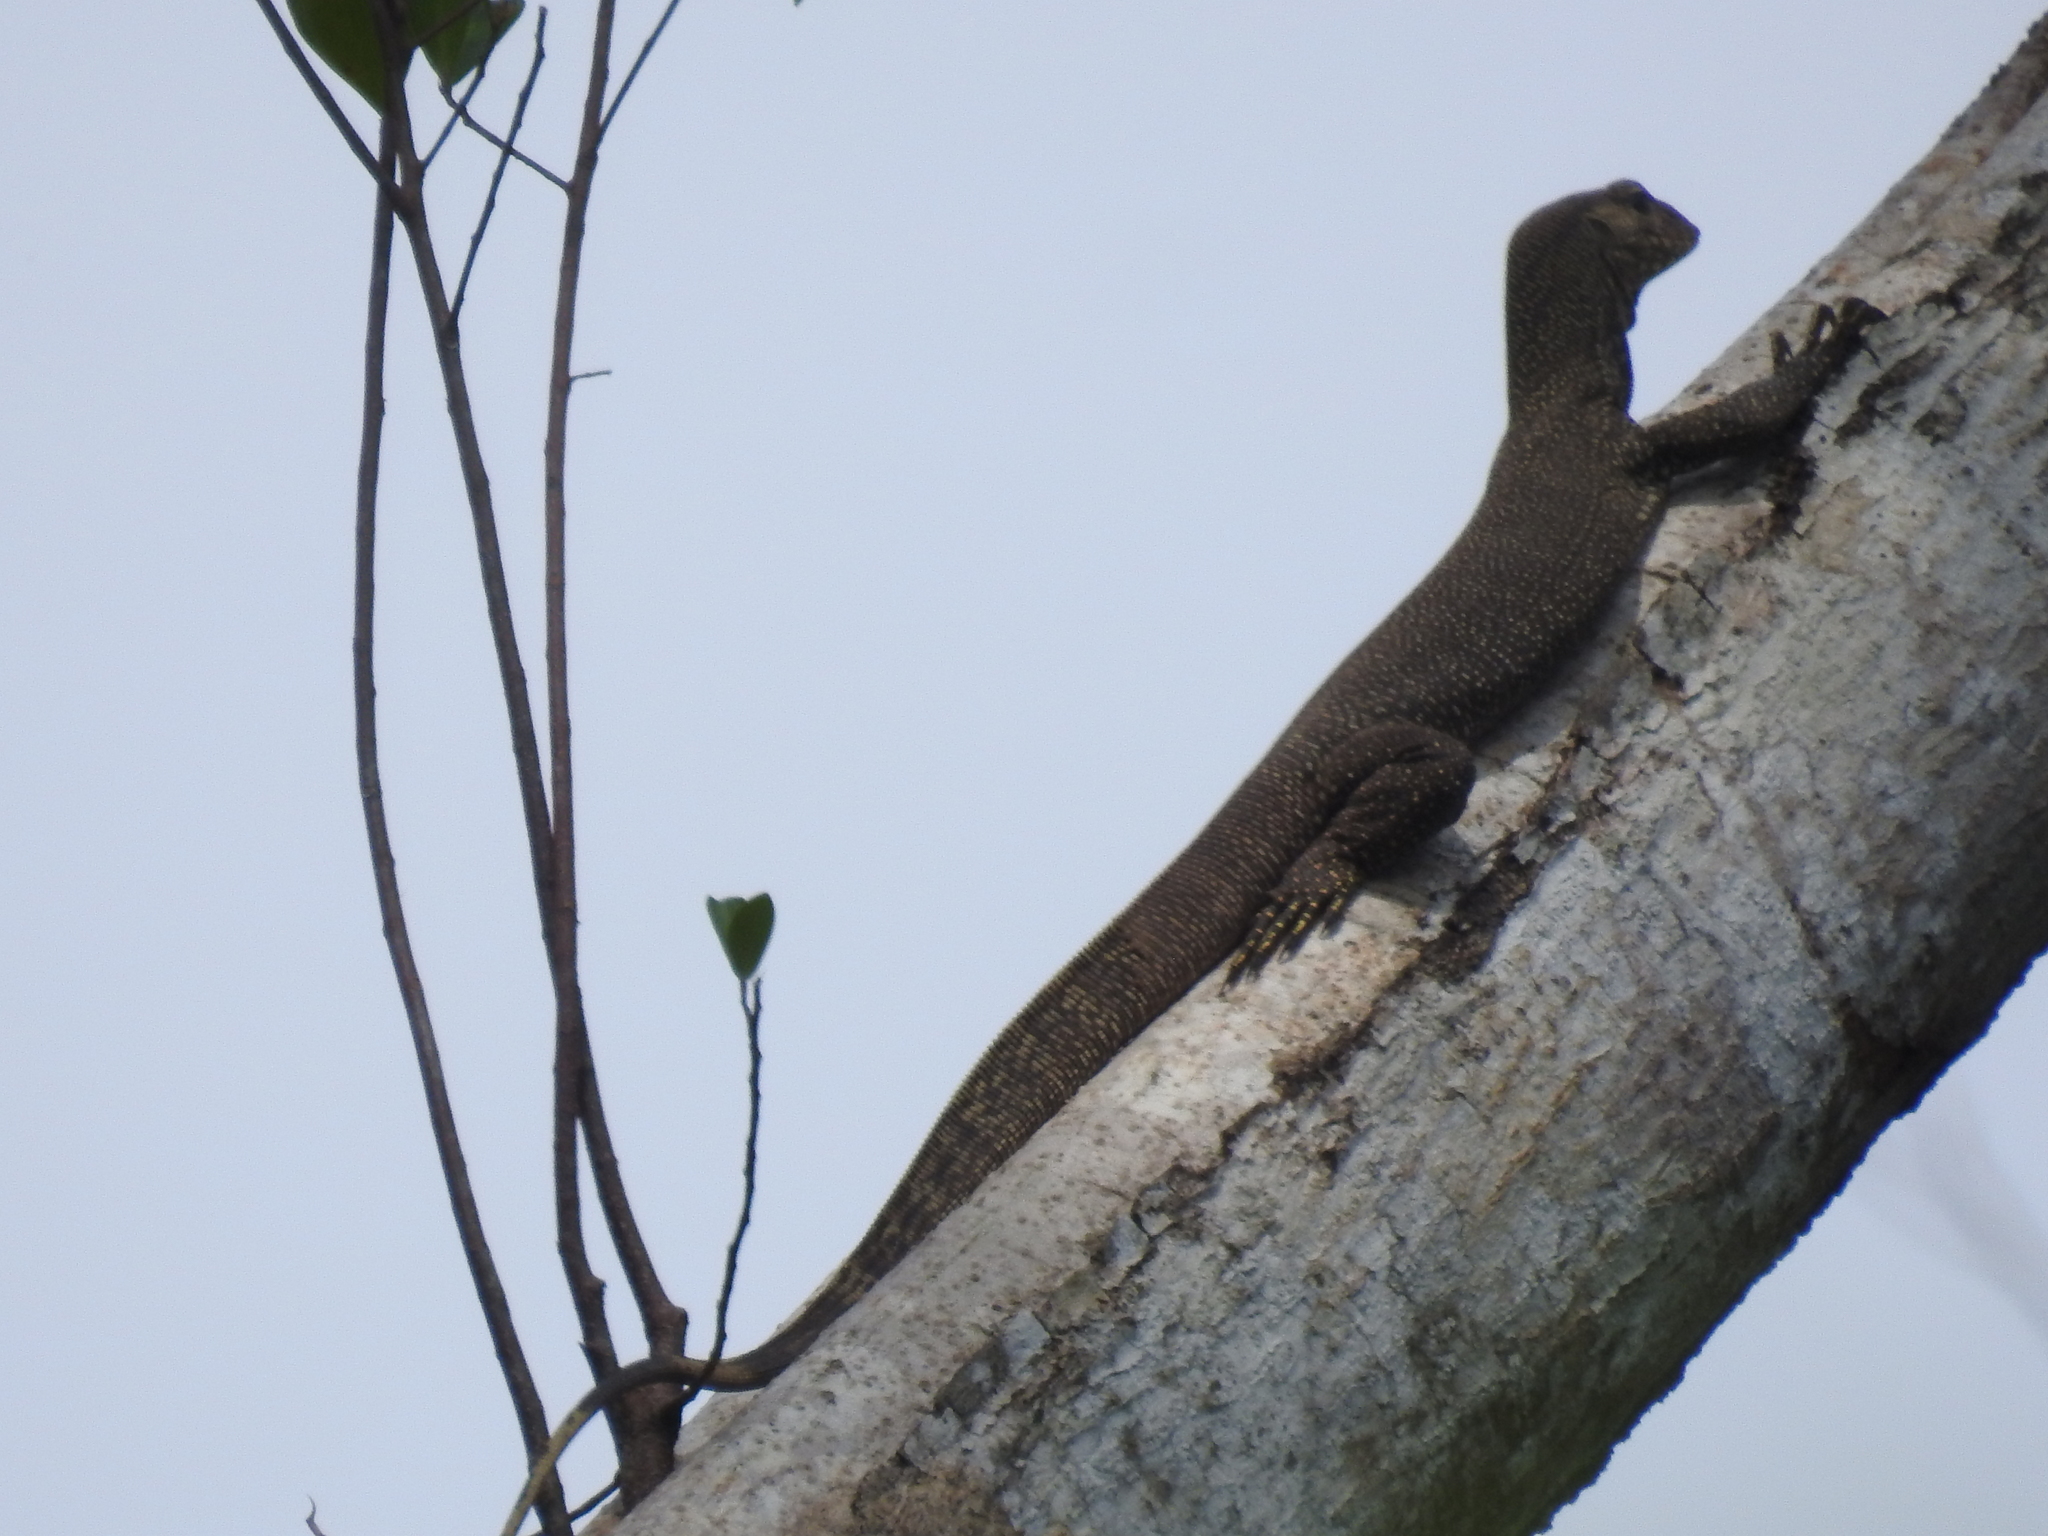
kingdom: Animalia
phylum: Chordata
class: Squamata
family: Varanidae
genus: Varanus
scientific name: Varanus nebulosus
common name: Clouded monitor
